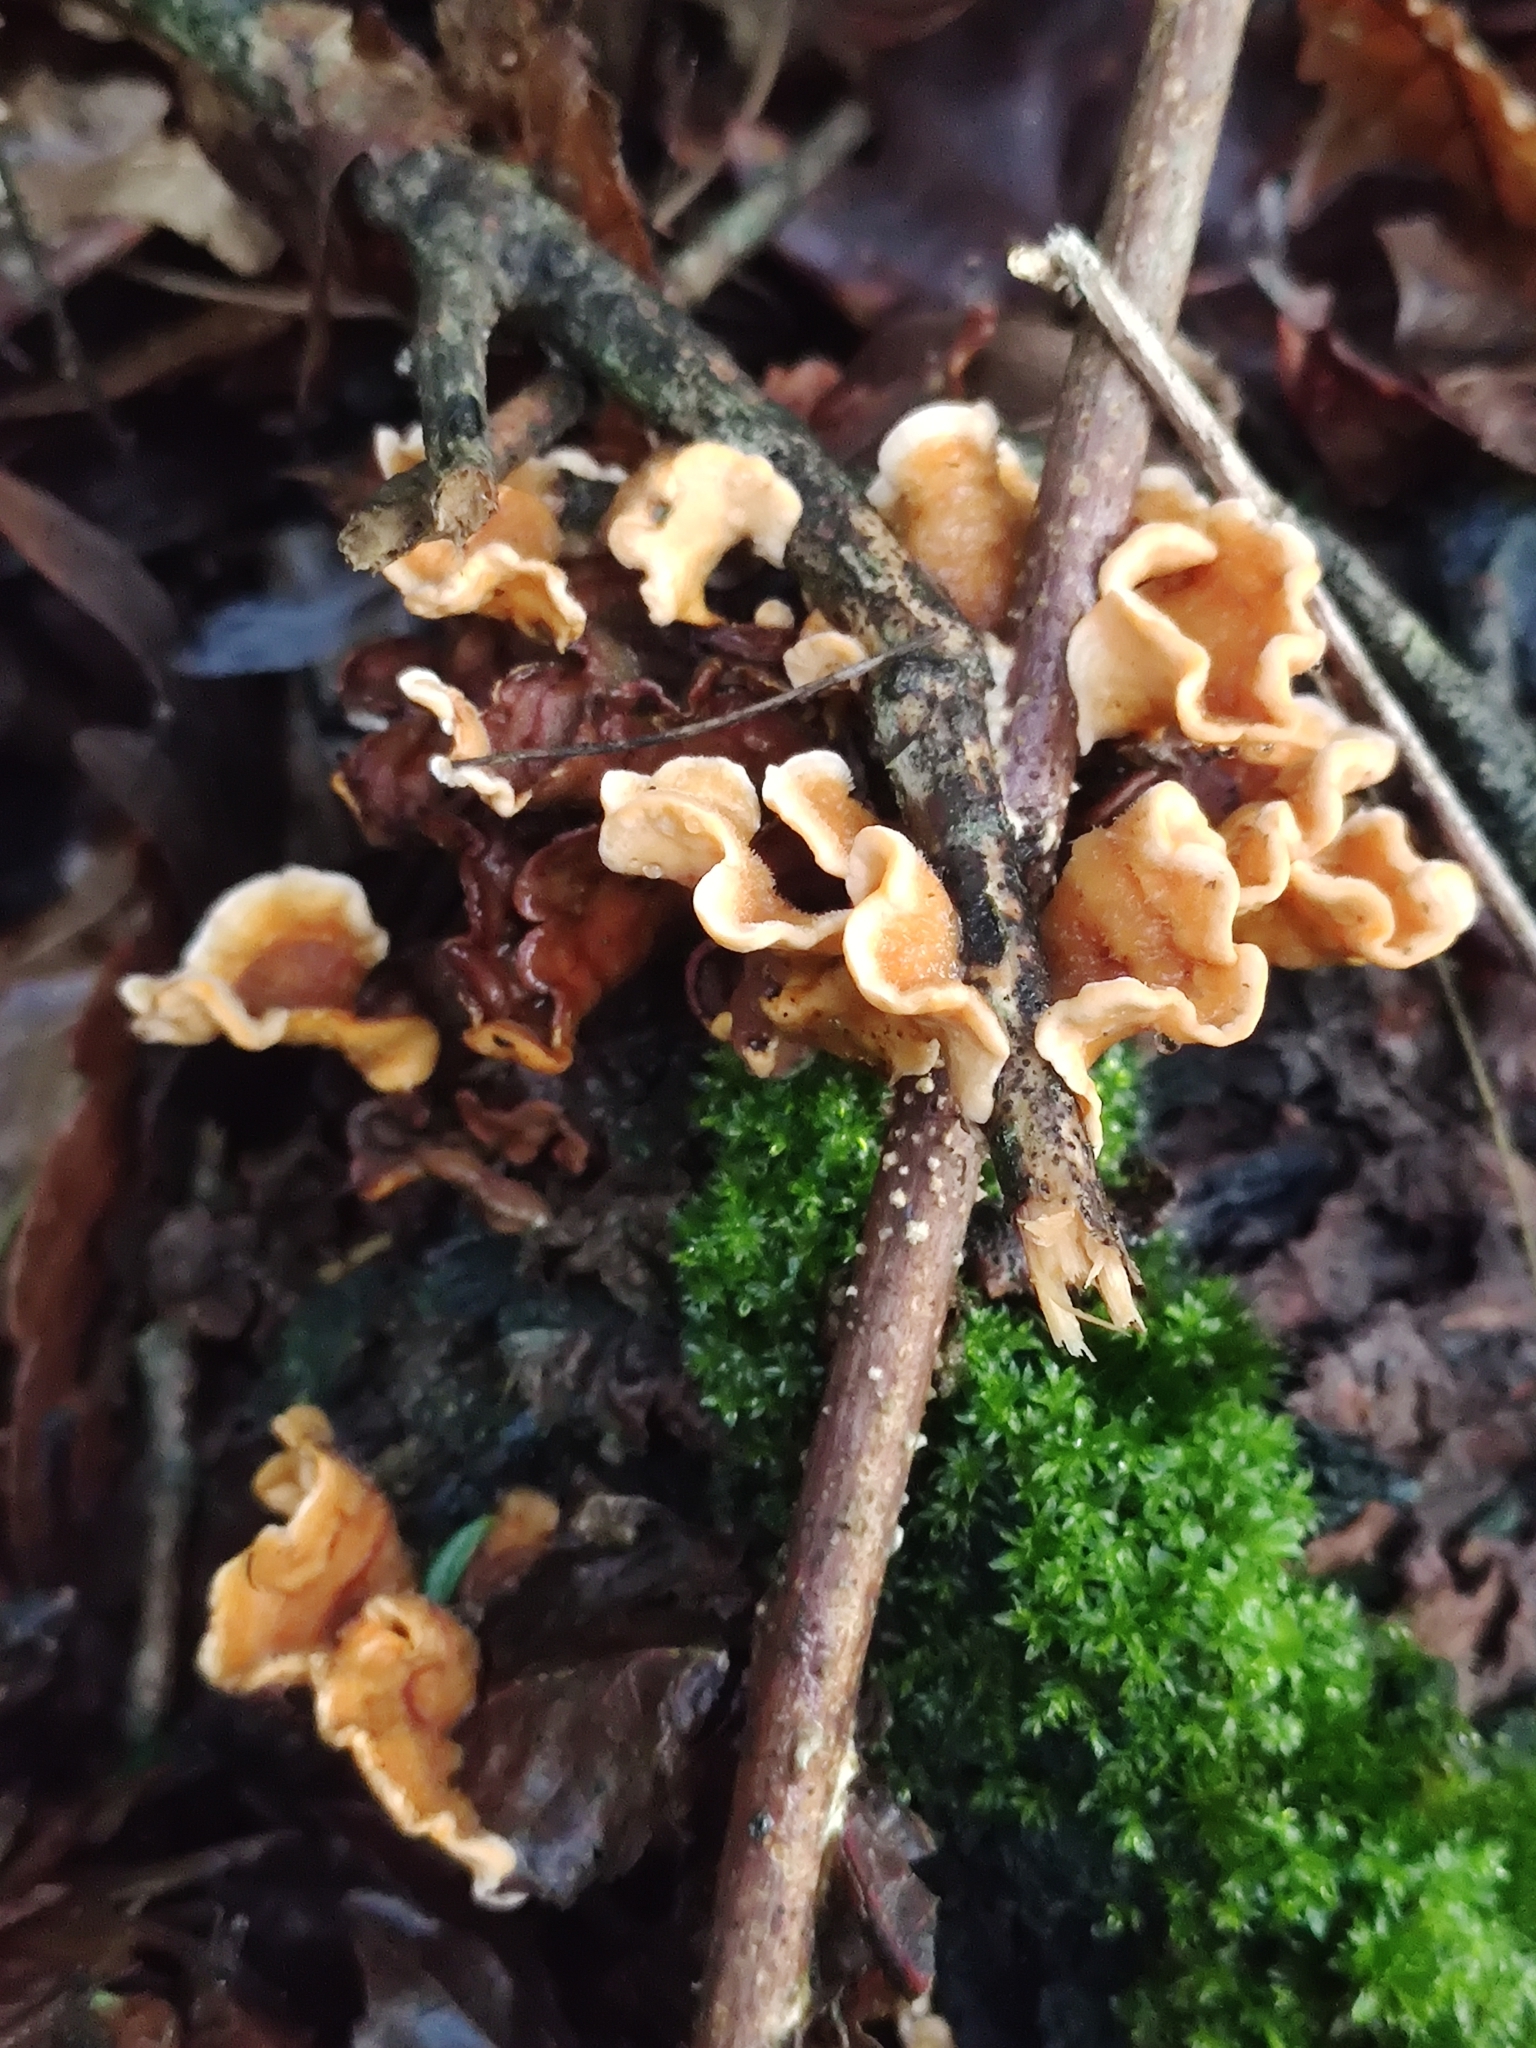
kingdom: Fungi
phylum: Basidiomycota
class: Agaricomycetes
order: Russulales
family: Stereaceae
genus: Stereum
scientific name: Stereum hirsutum
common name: Hairy curtain crust
